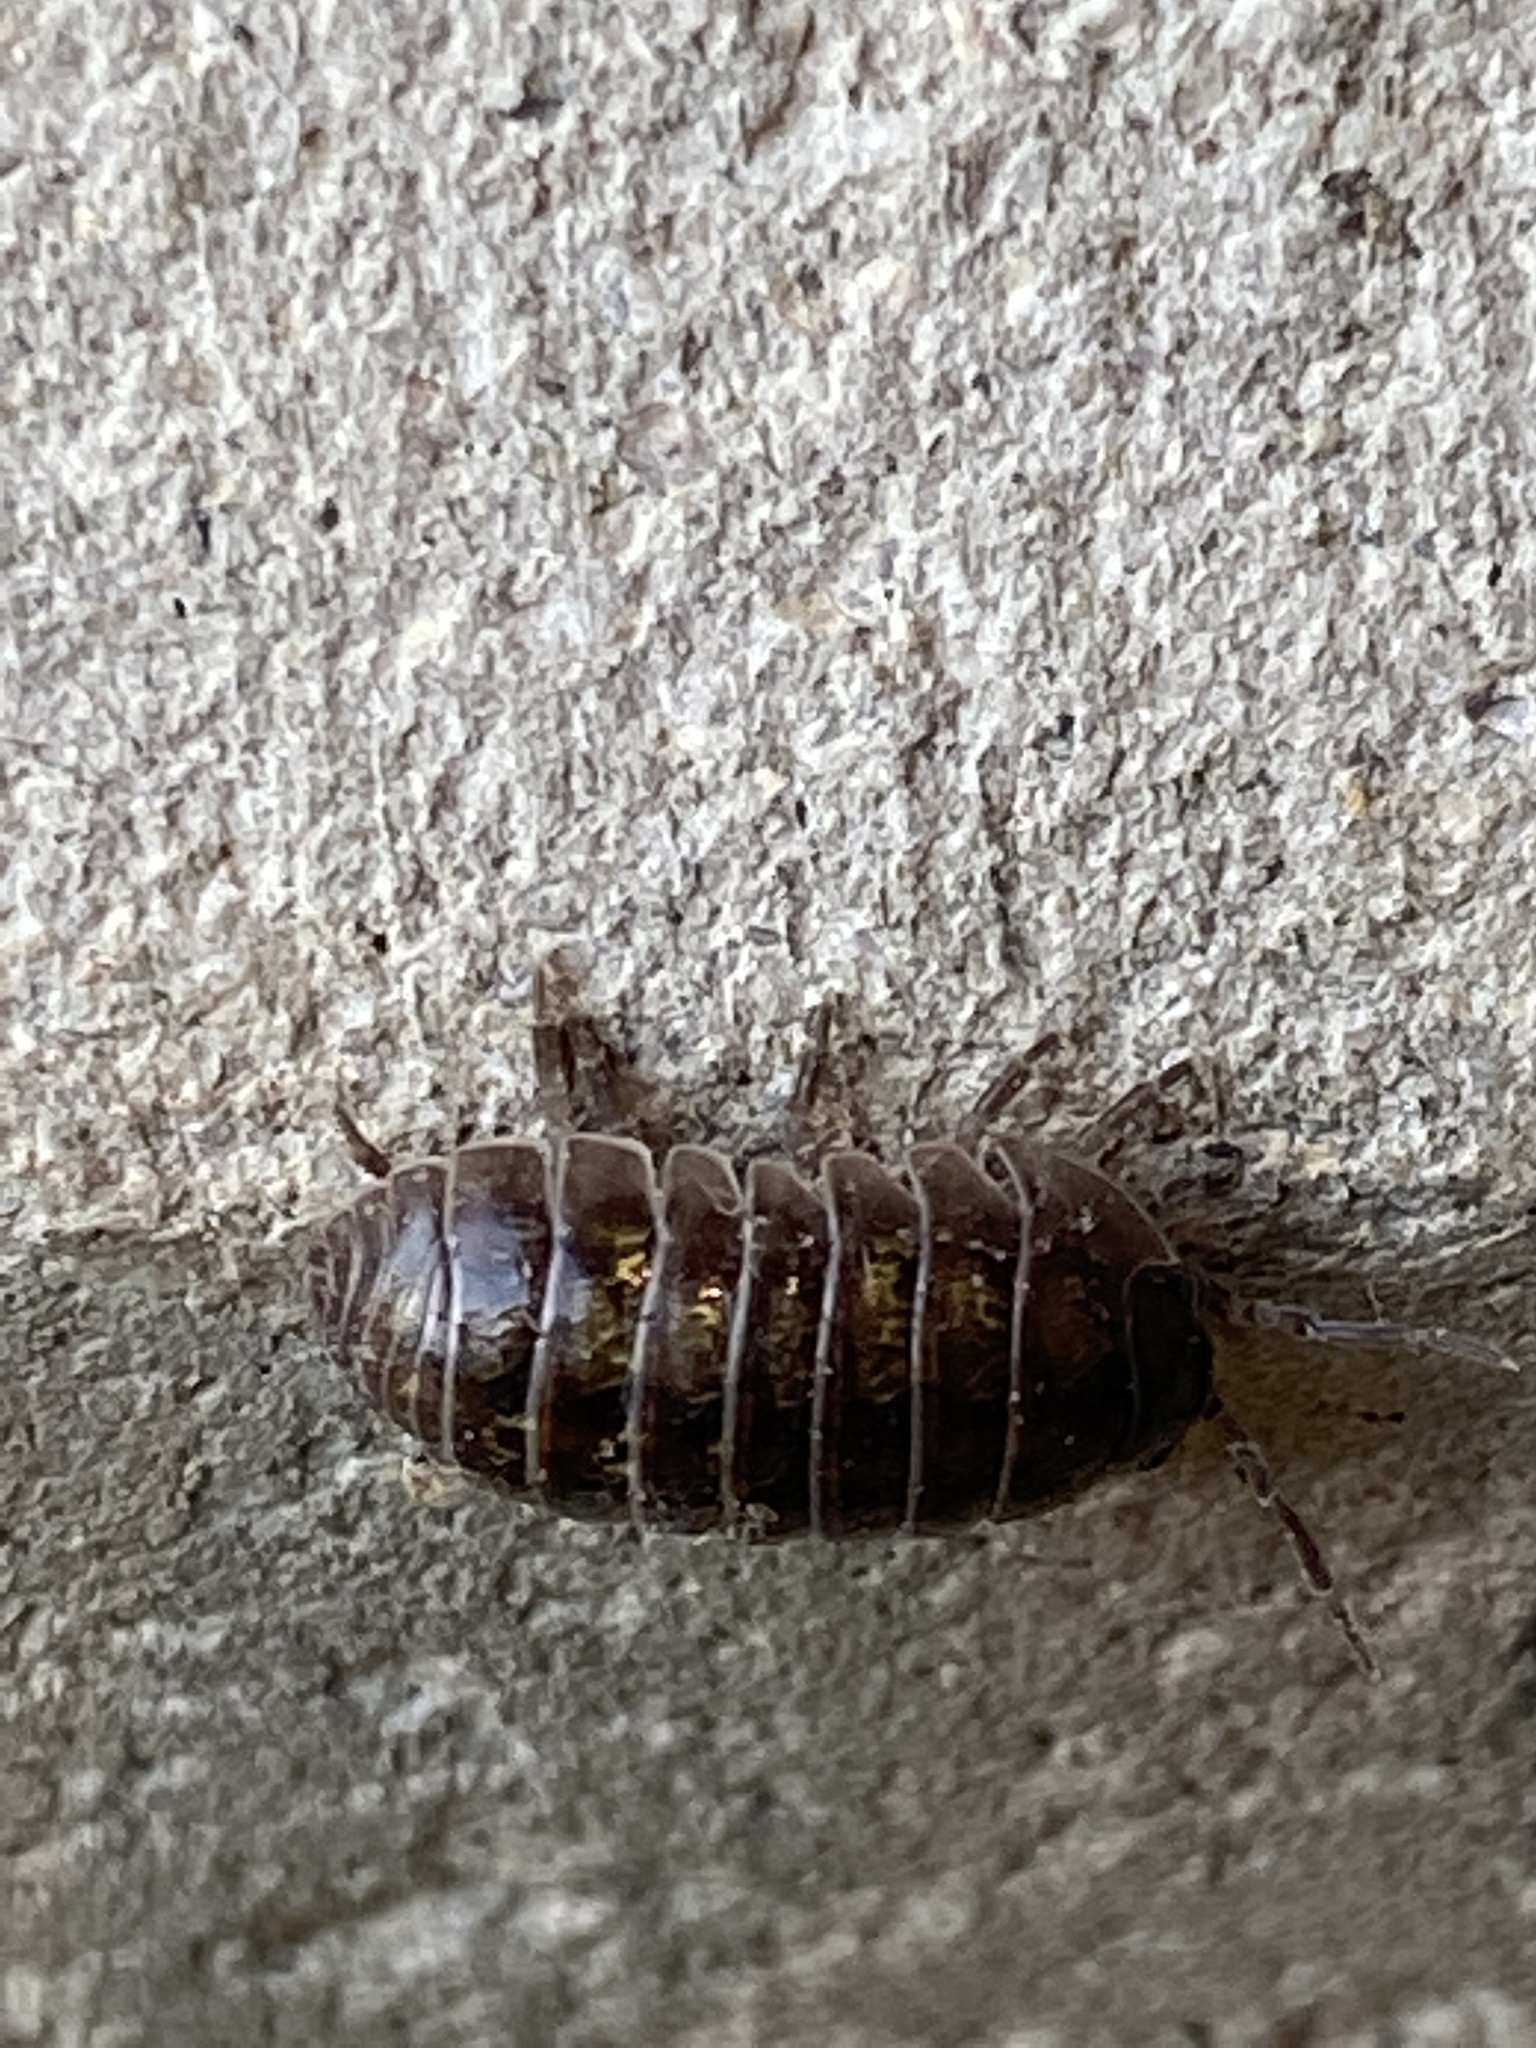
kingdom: Animalia
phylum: Arthropoda
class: Malacostraca
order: Isopoda
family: Armadillidiidae
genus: Armadillidium
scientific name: Armadillidium vulgare
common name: Common pill woodlouse
